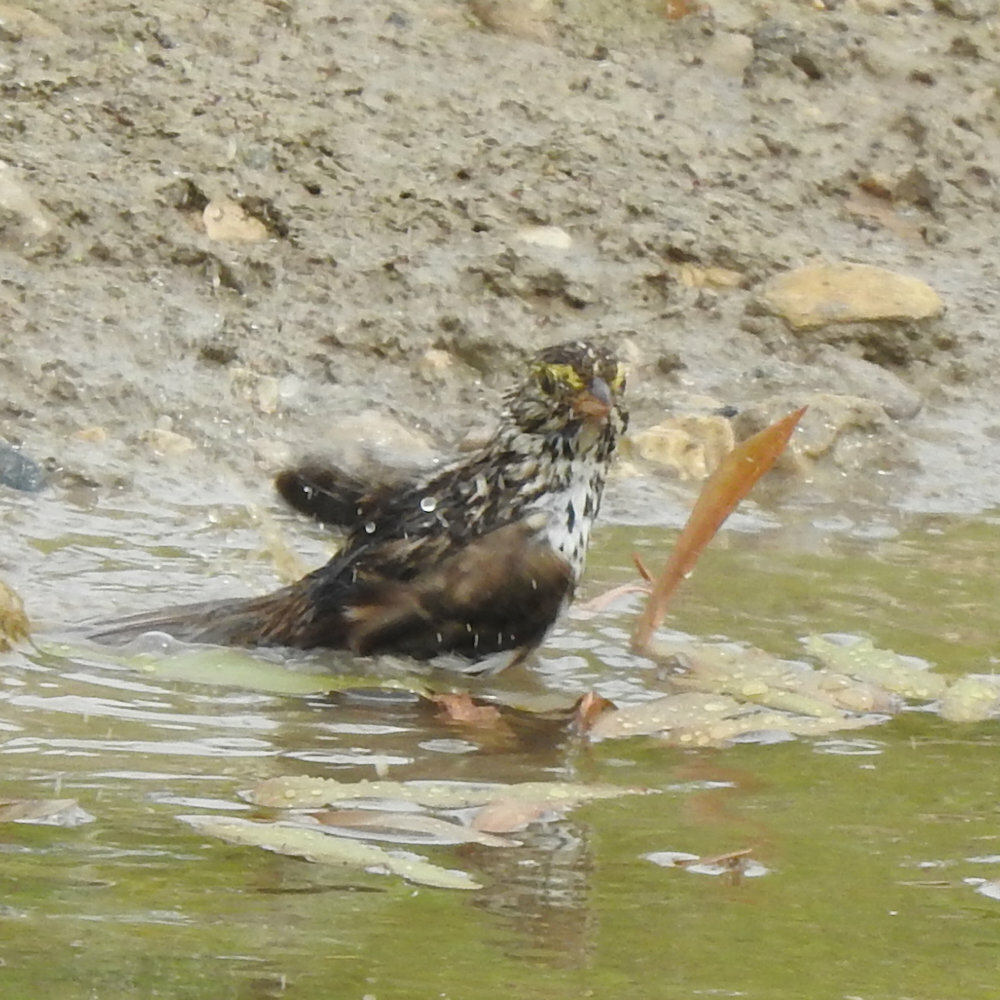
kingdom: Animalia
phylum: Chordata
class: Aves
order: Passeriformes
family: Passerellidae
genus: Passerculus
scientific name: Passerculus sandwichensis
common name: Savannah sparrow
